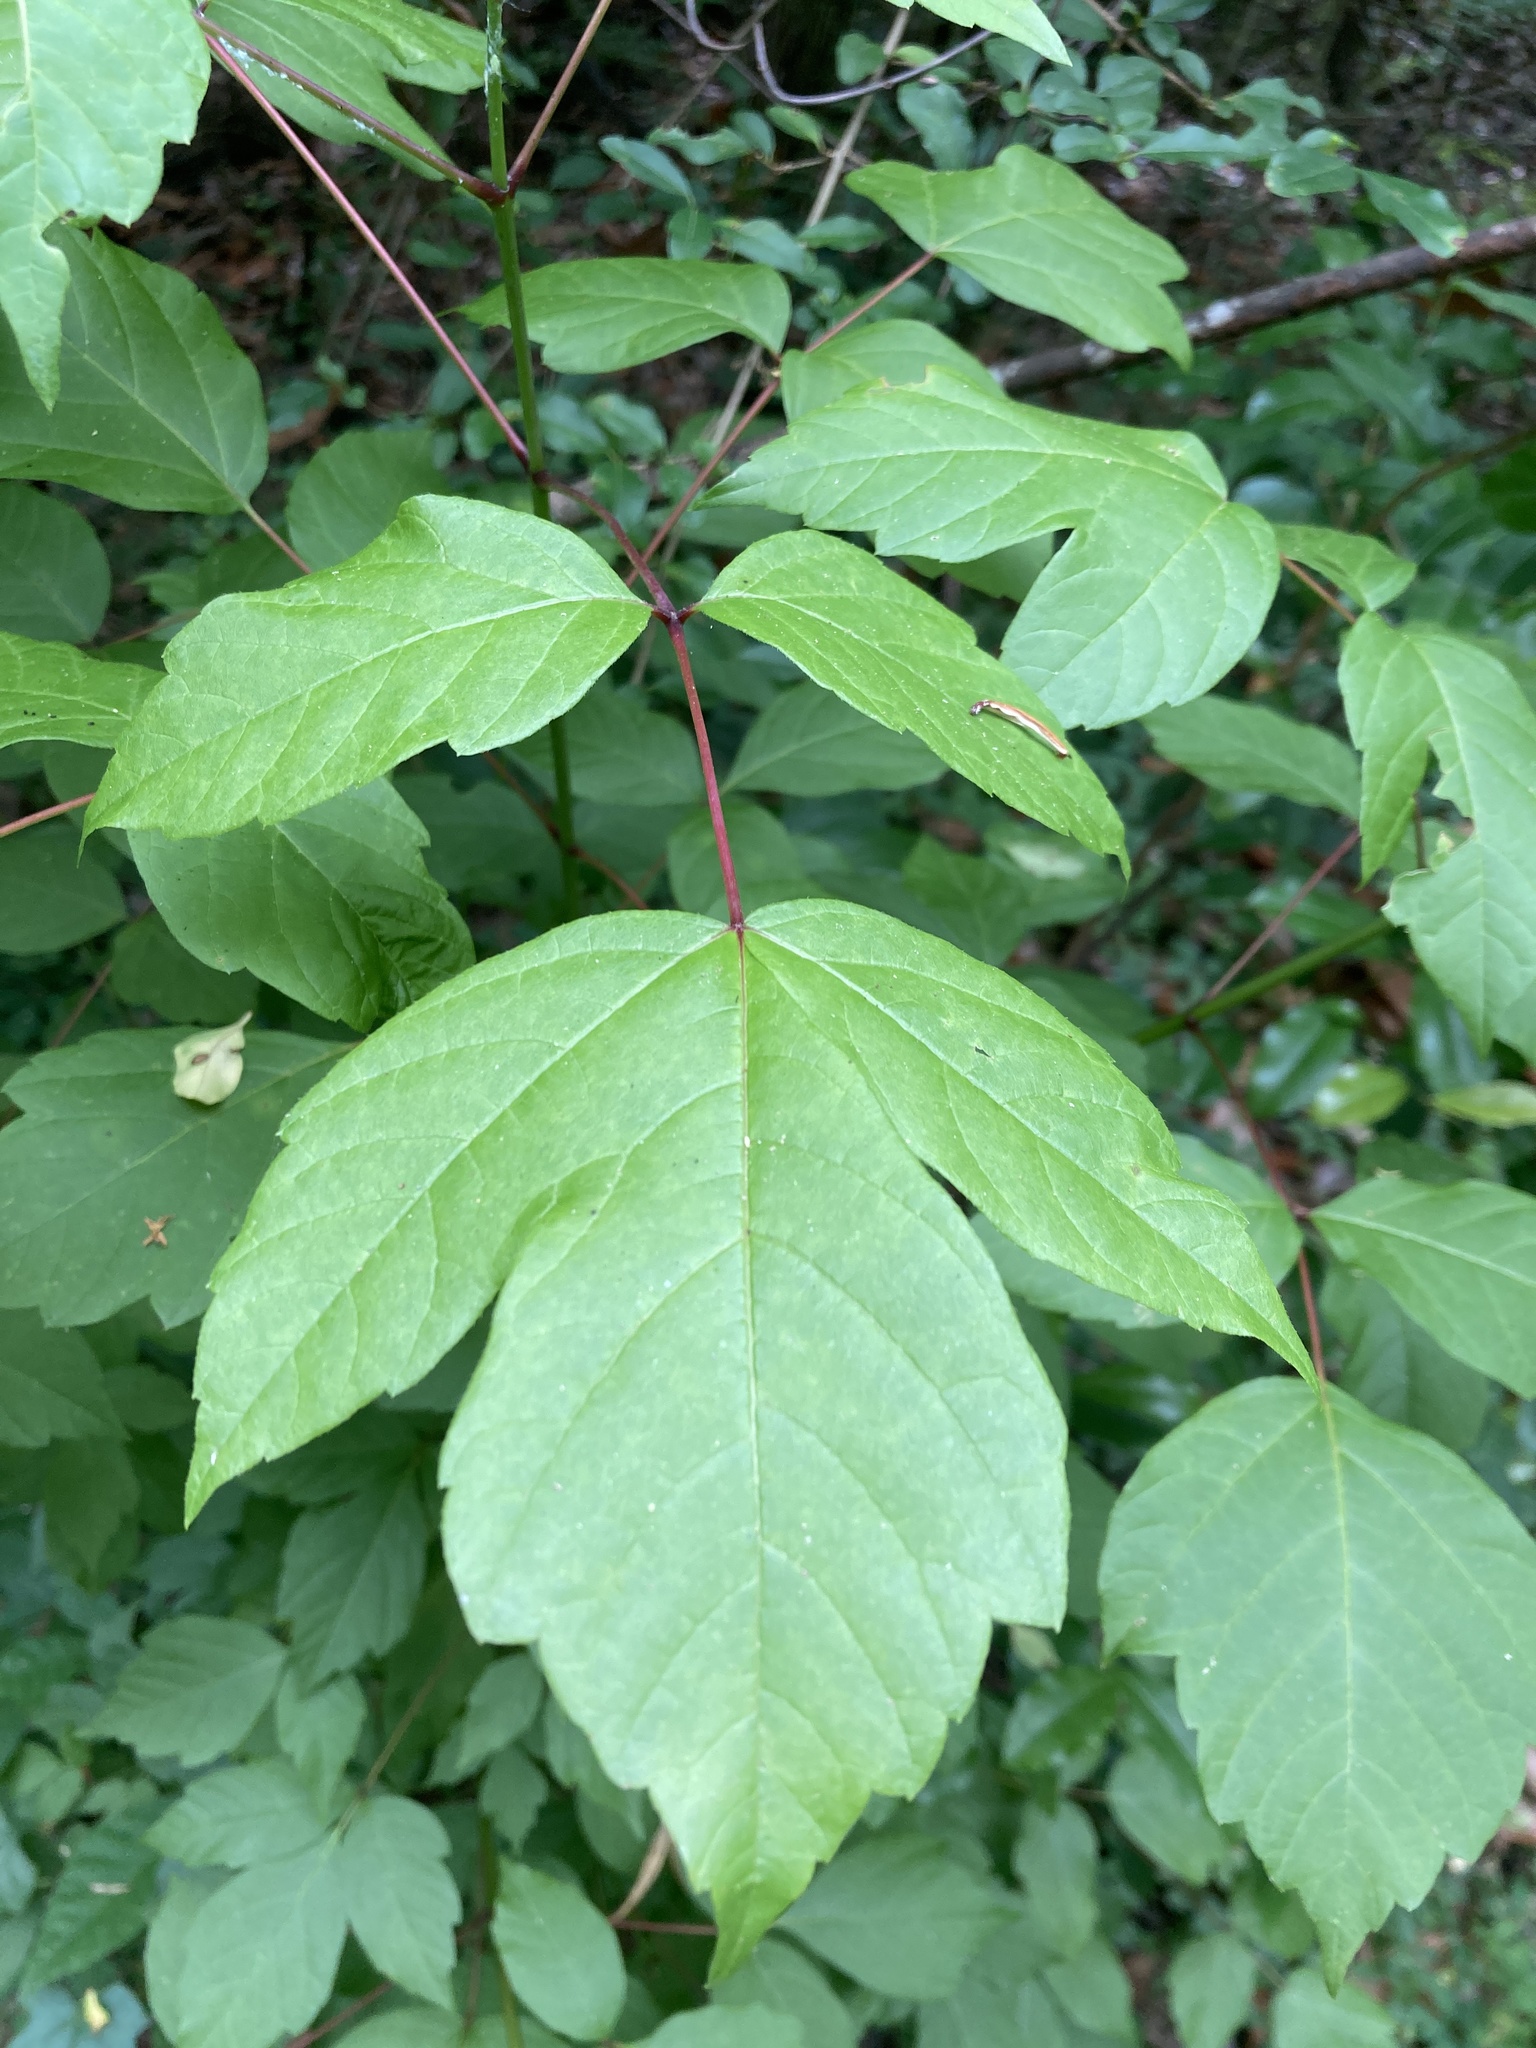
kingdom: Plantae
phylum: Tracheophyta
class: Magnoliopsida
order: Sapindales
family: Sapindaceae
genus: Acer
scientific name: Acer negundo
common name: Ashleaf maple
